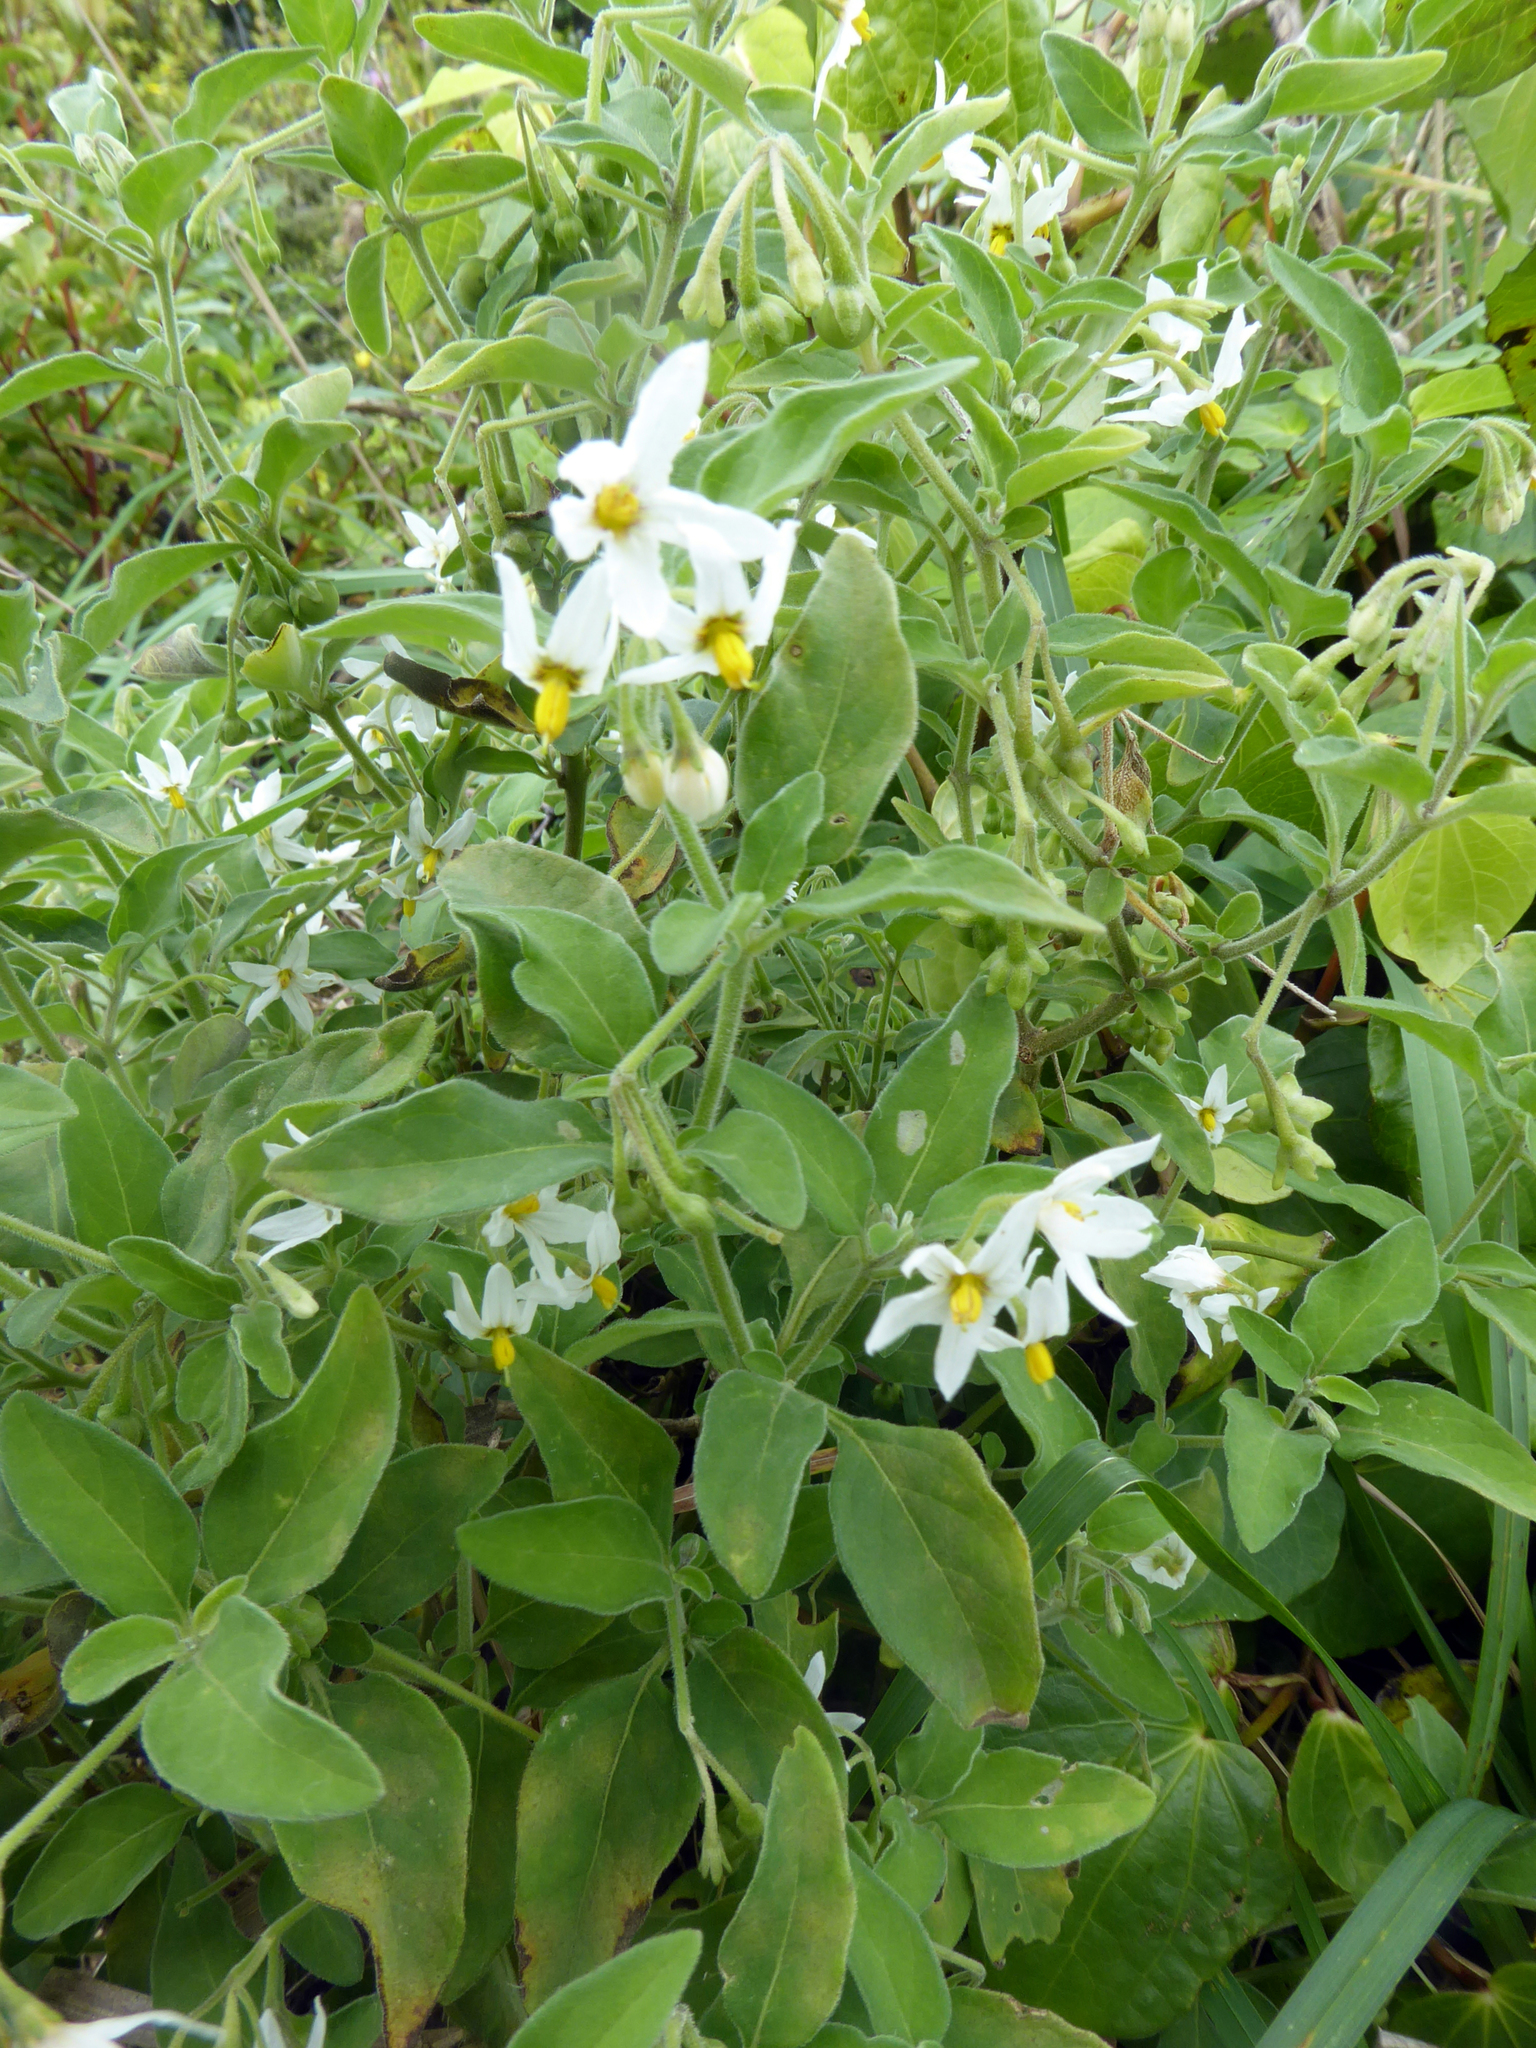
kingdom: Plantae
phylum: Tracheophyta
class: Magnoliopsida
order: Solanales
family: Solanaceae
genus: Solanum
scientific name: Solanum chenopodioides
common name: Tall nightshade
